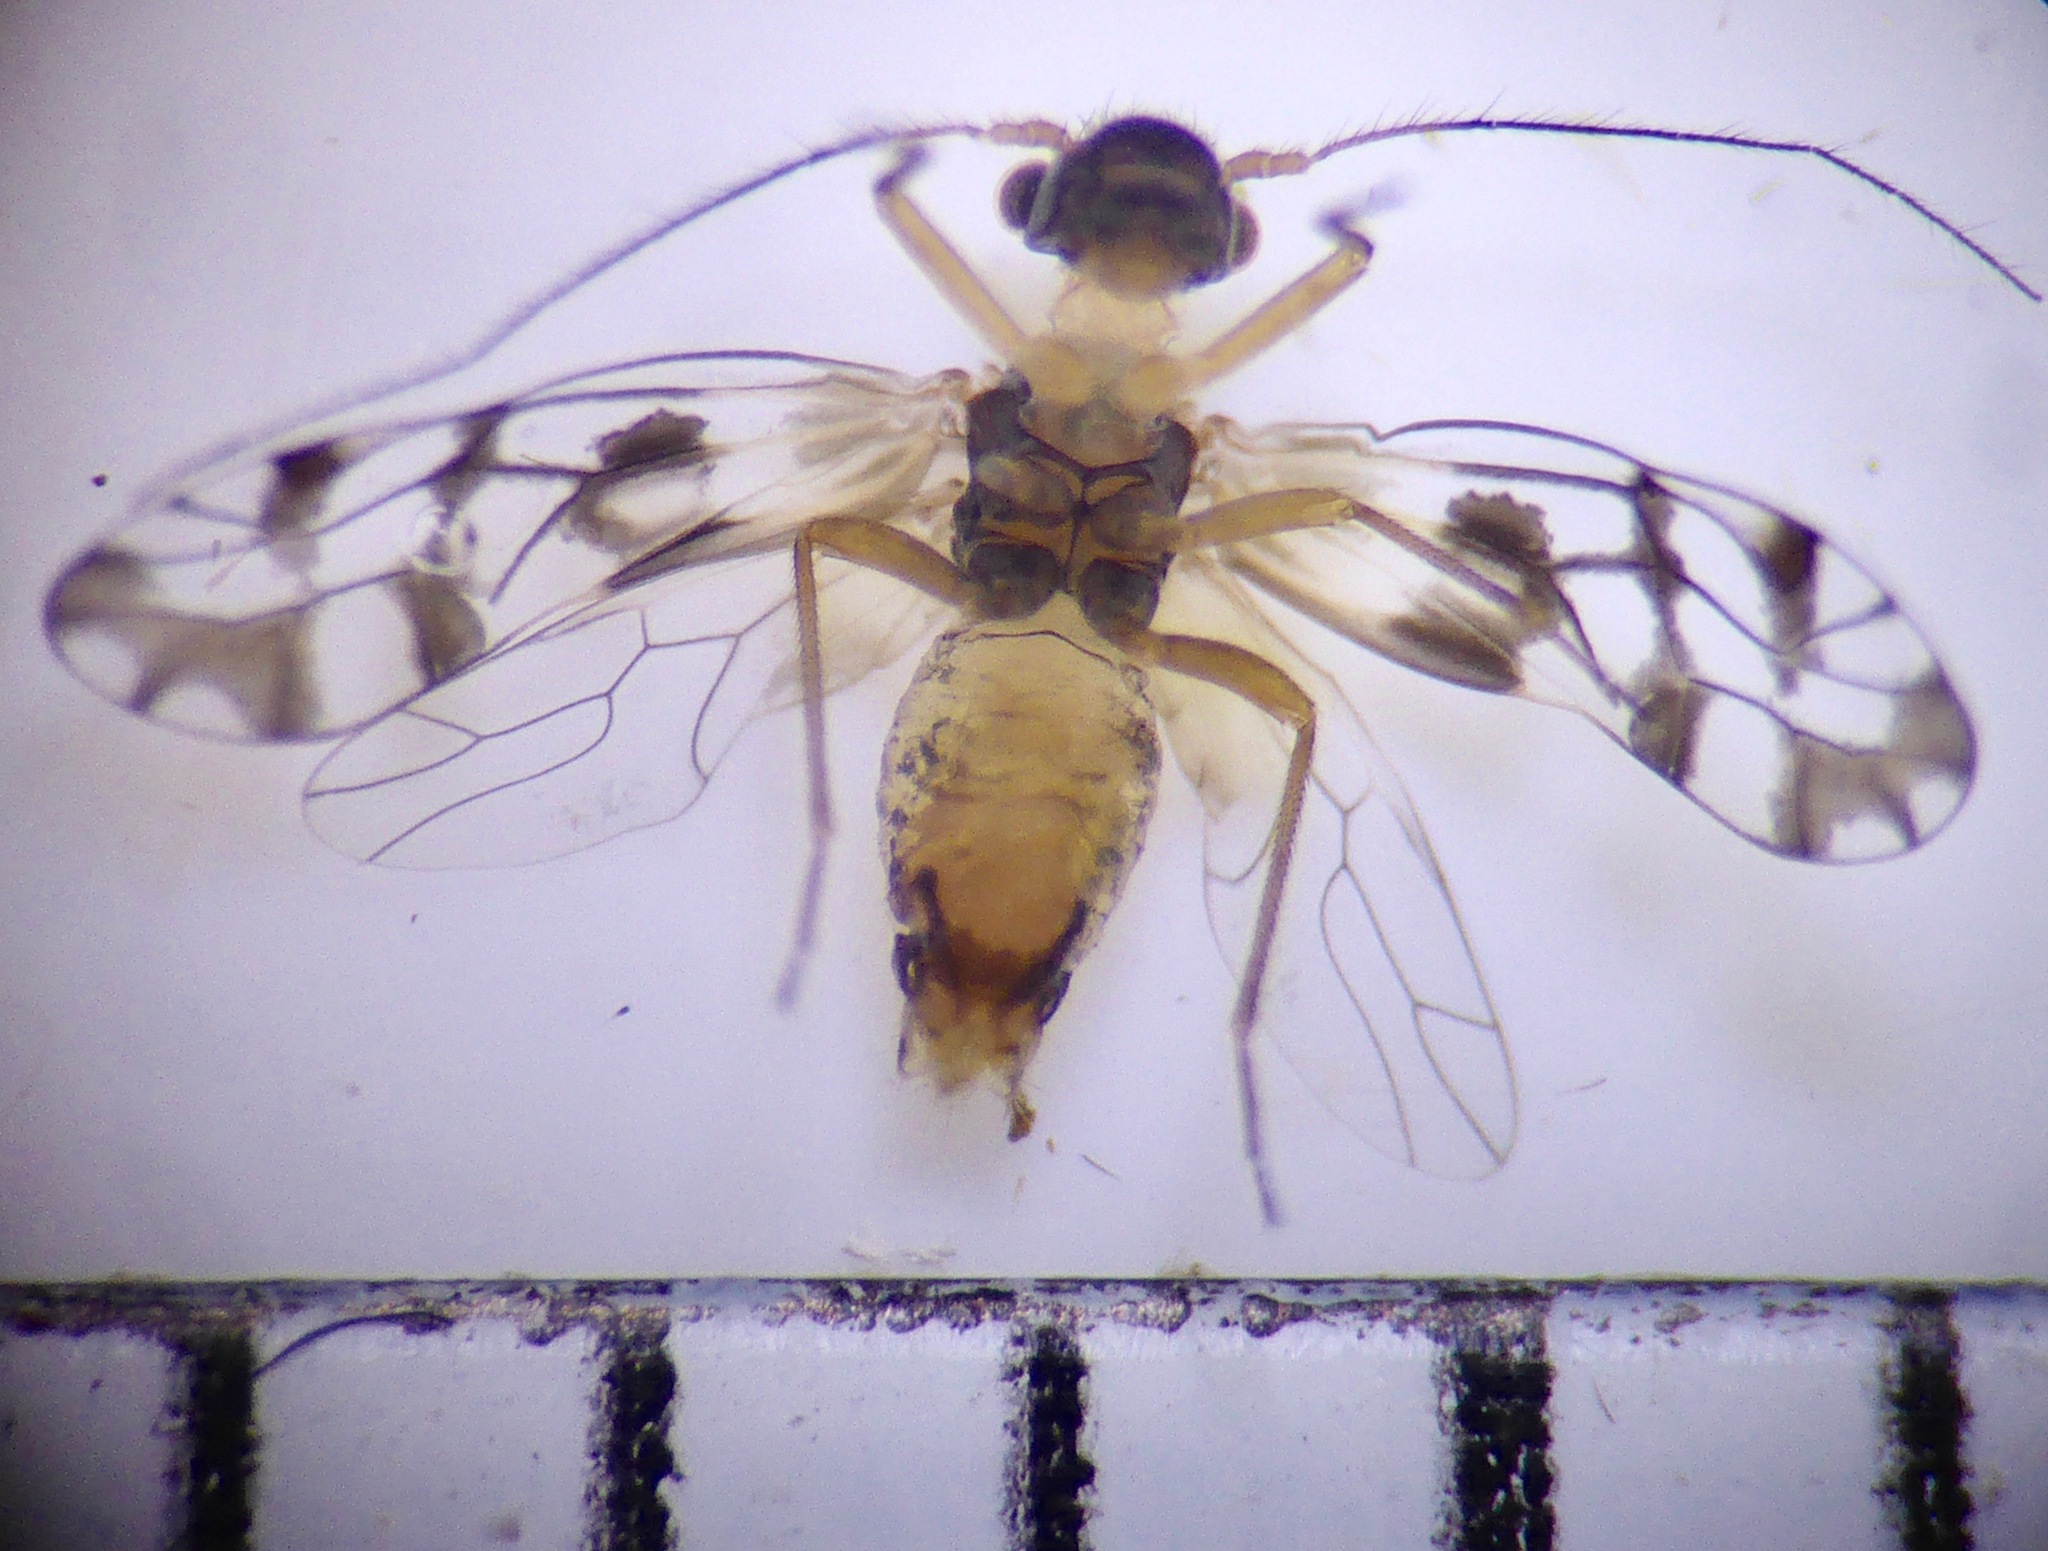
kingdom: Animalia
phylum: Arthropoda
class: Insecta
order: Psocodea
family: Elipsocidae
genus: Propsocus
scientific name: Propsocus pulchripennis
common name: Bark louse
